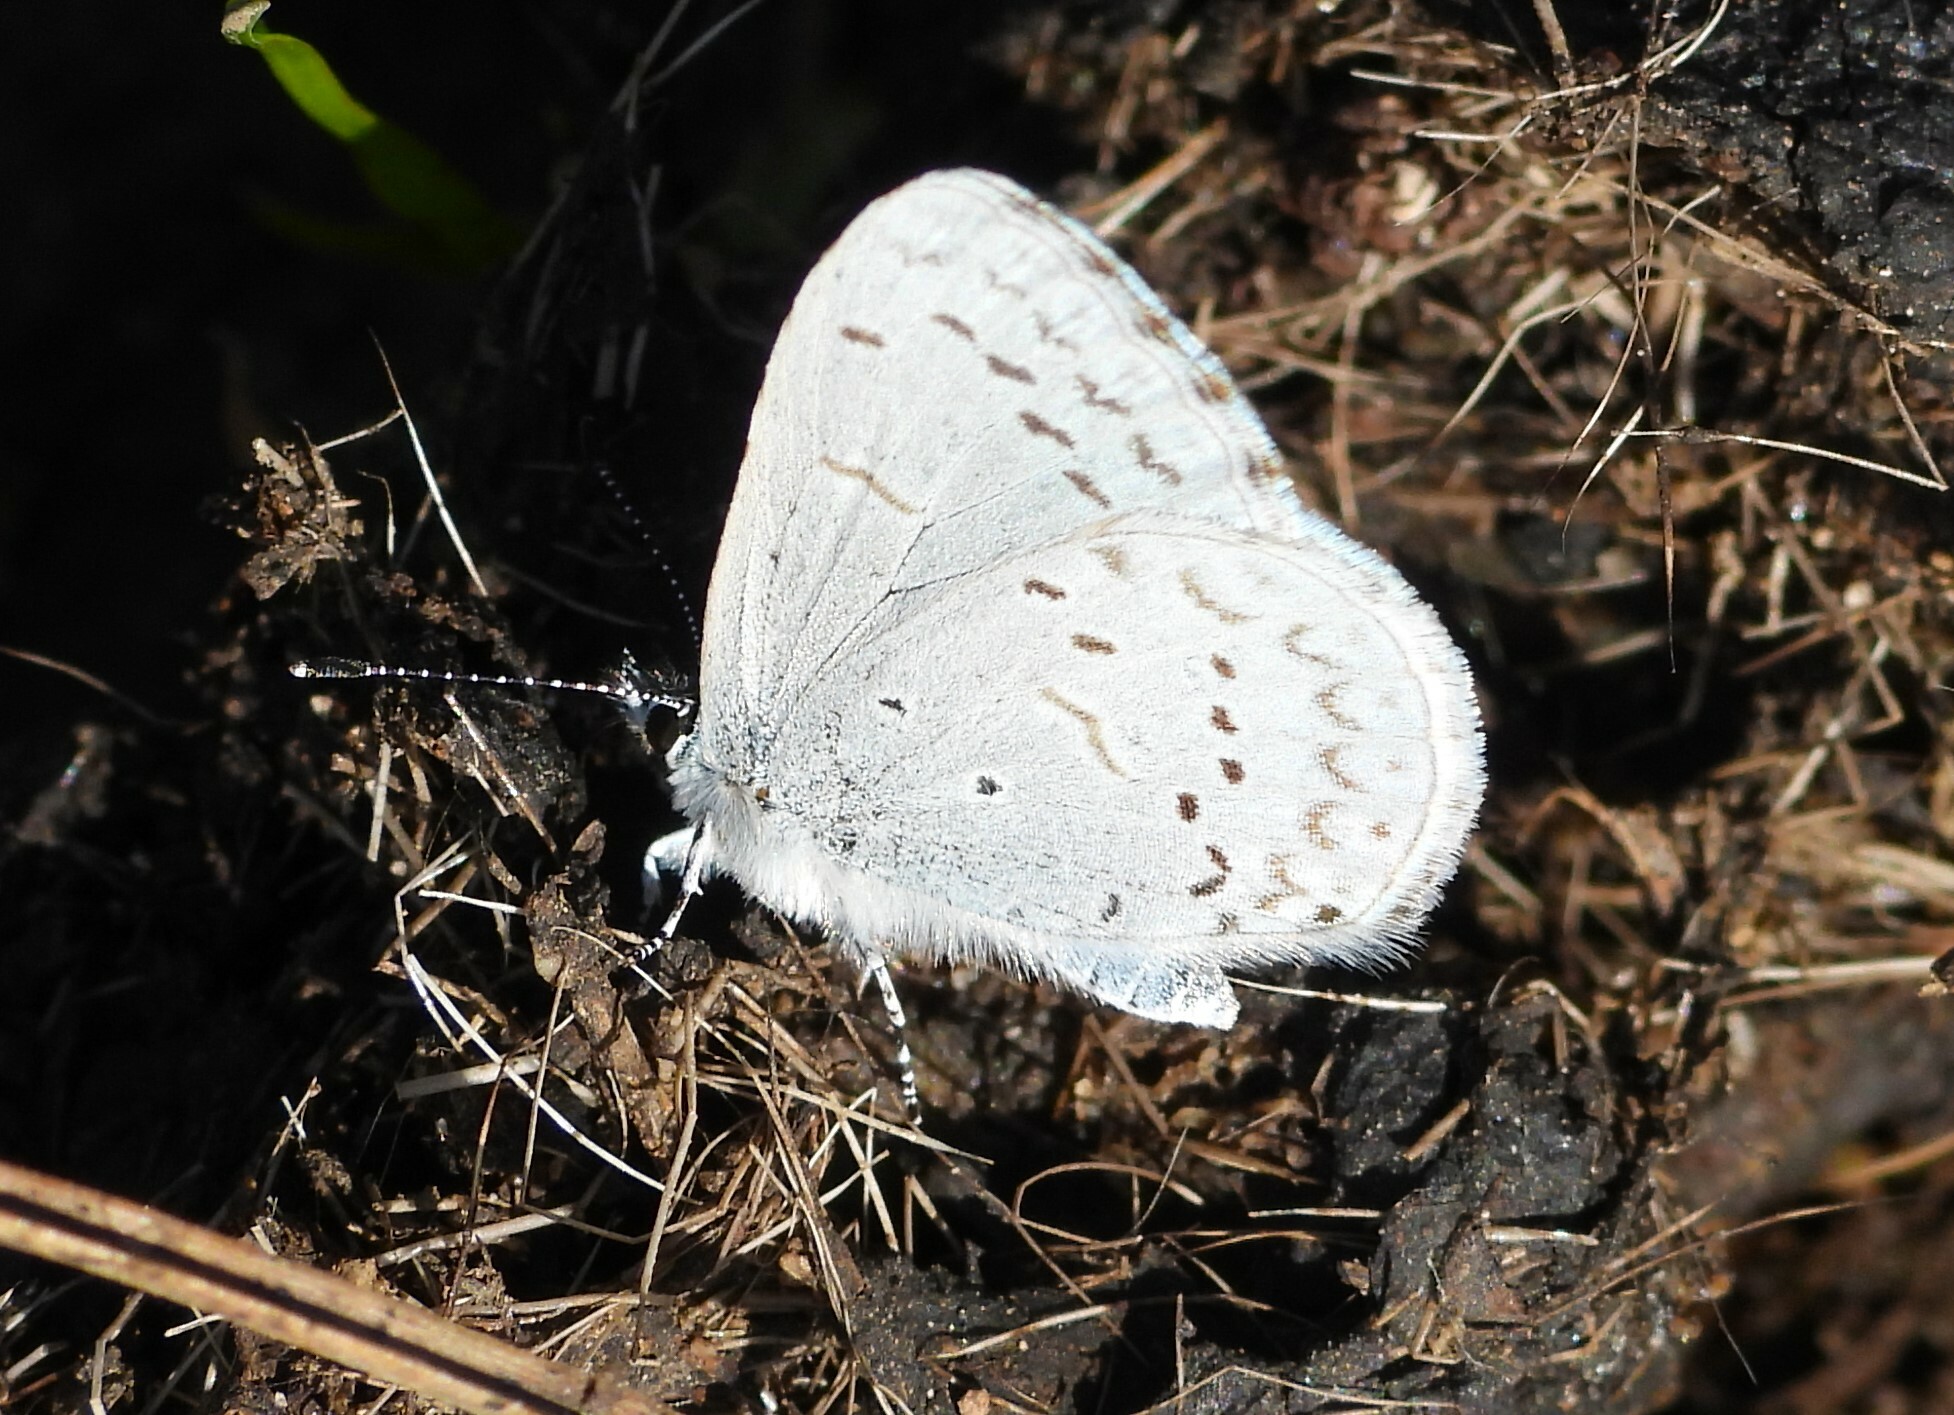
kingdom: Animalia
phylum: Arthropoda
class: Insecta
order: Lepidoptera
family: Lycaenidae
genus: Celastrina
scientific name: Celastrina ladon
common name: Spring azure
